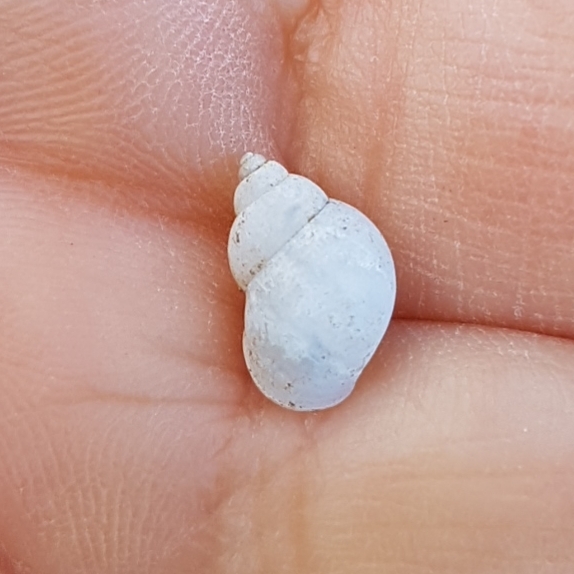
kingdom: Animalia
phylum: Mollusca
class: Gastropoda
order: Littorinimorpha
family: Bithyniidae
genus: Bithynia
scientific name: Bithynia tentaculata
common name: Common bithynia
